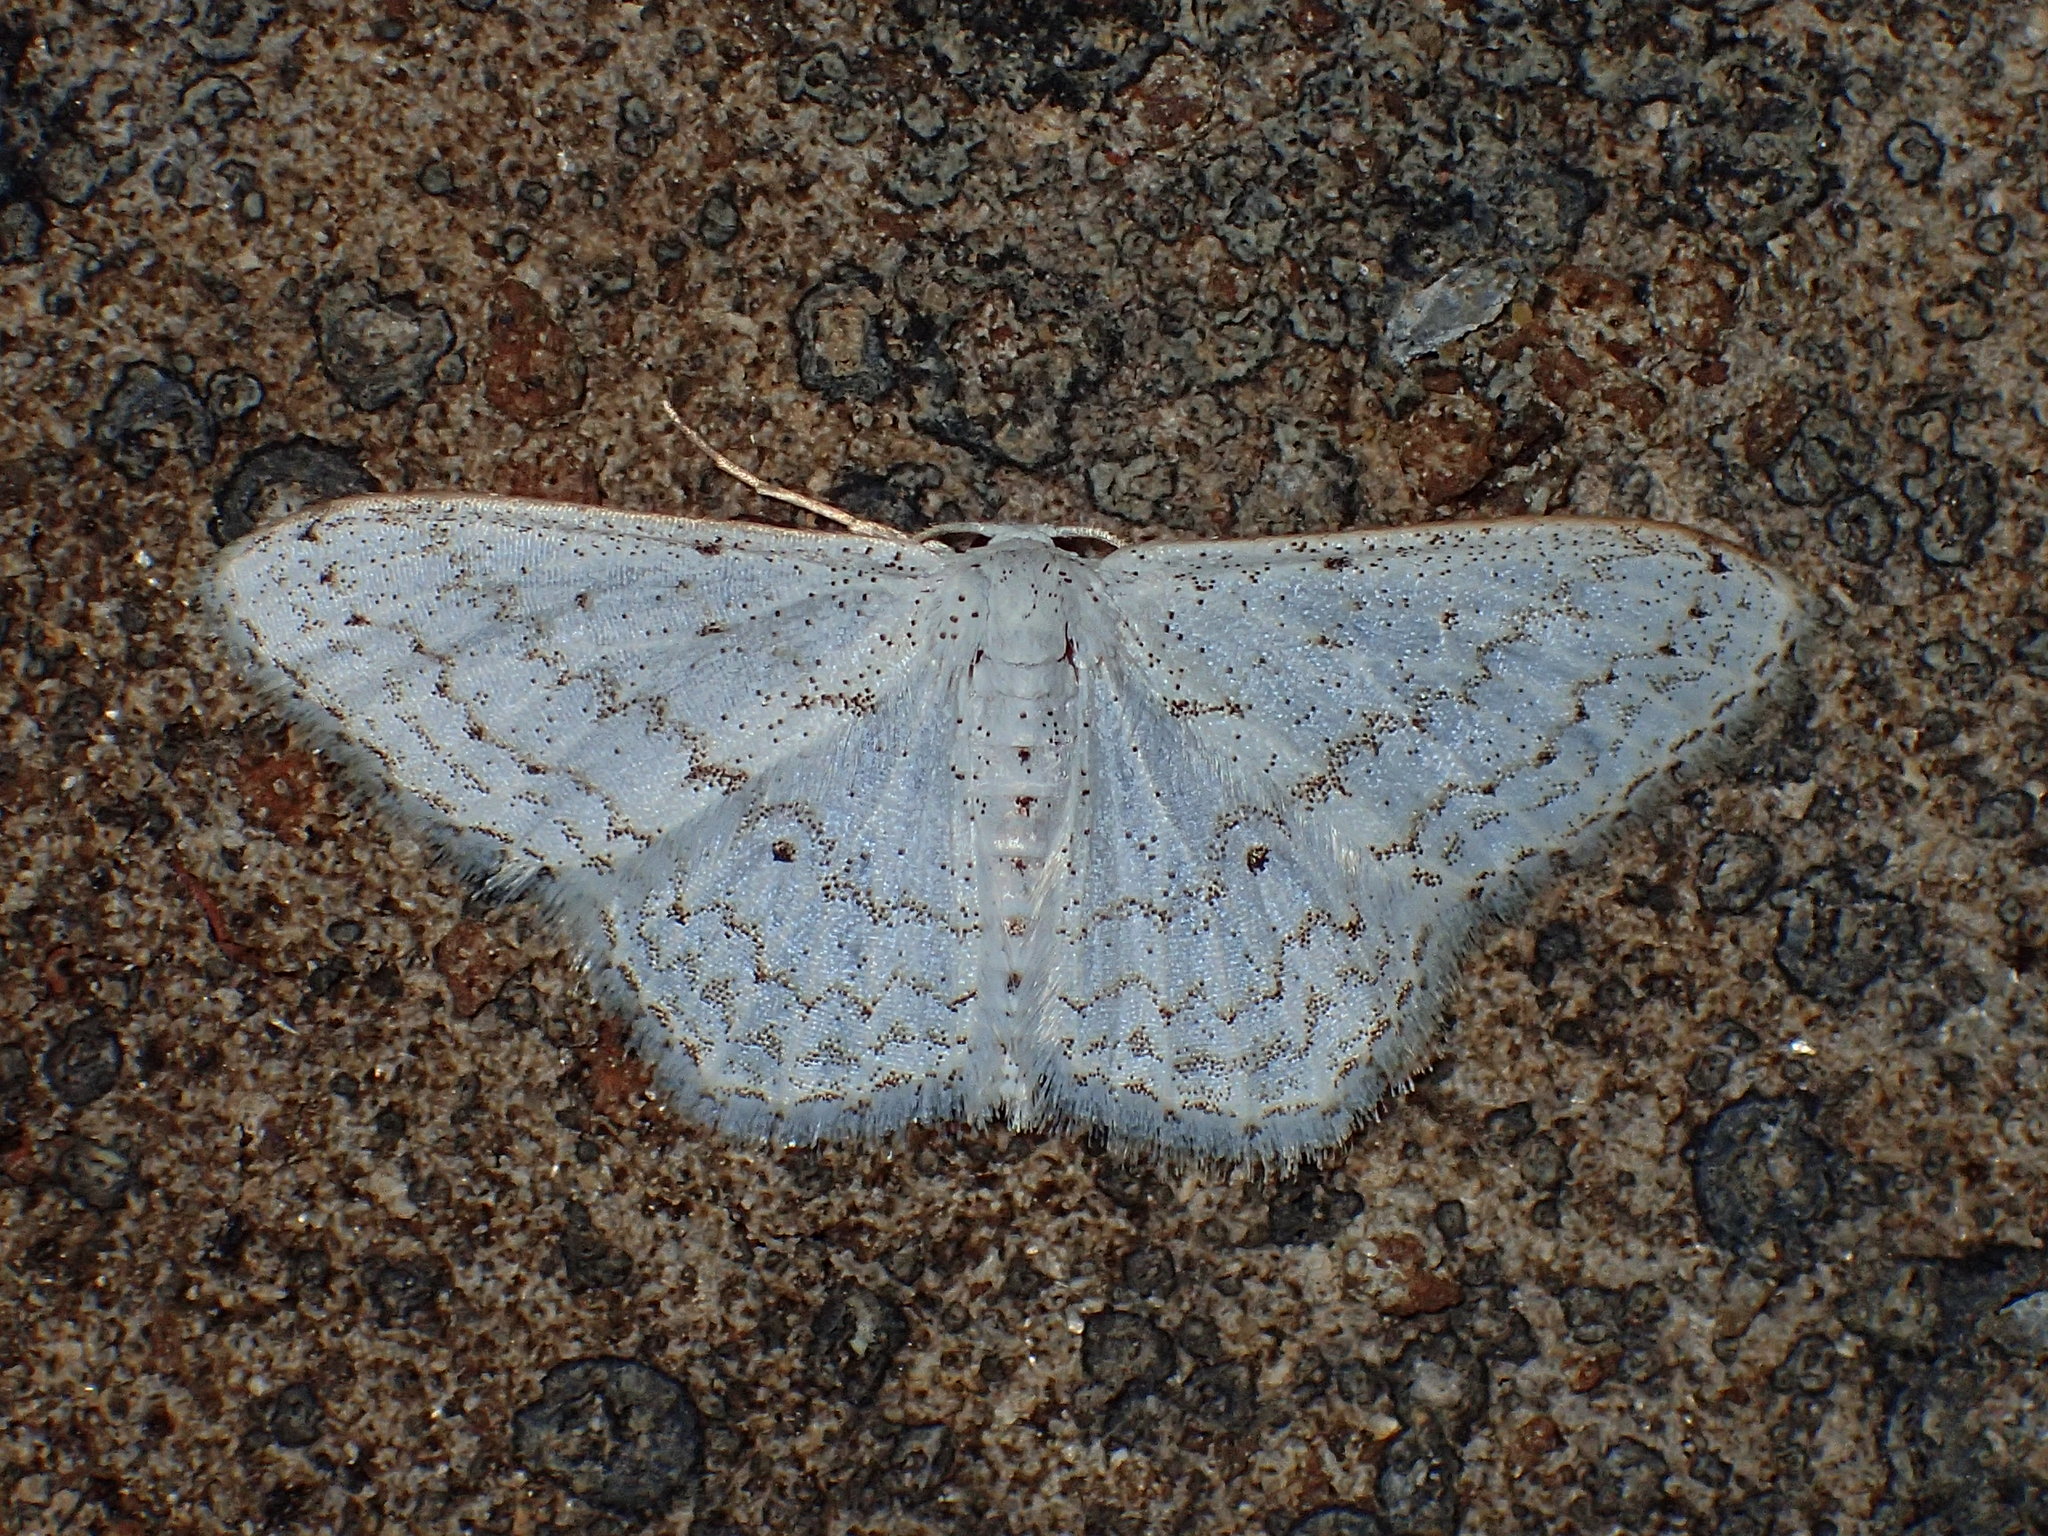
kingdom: Animalia
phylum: Arthropoda
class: Insecta
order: Lepidoptera
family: Geometridae
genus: Idaea
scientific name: Idaea tacturata
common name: Dot-lined wave
